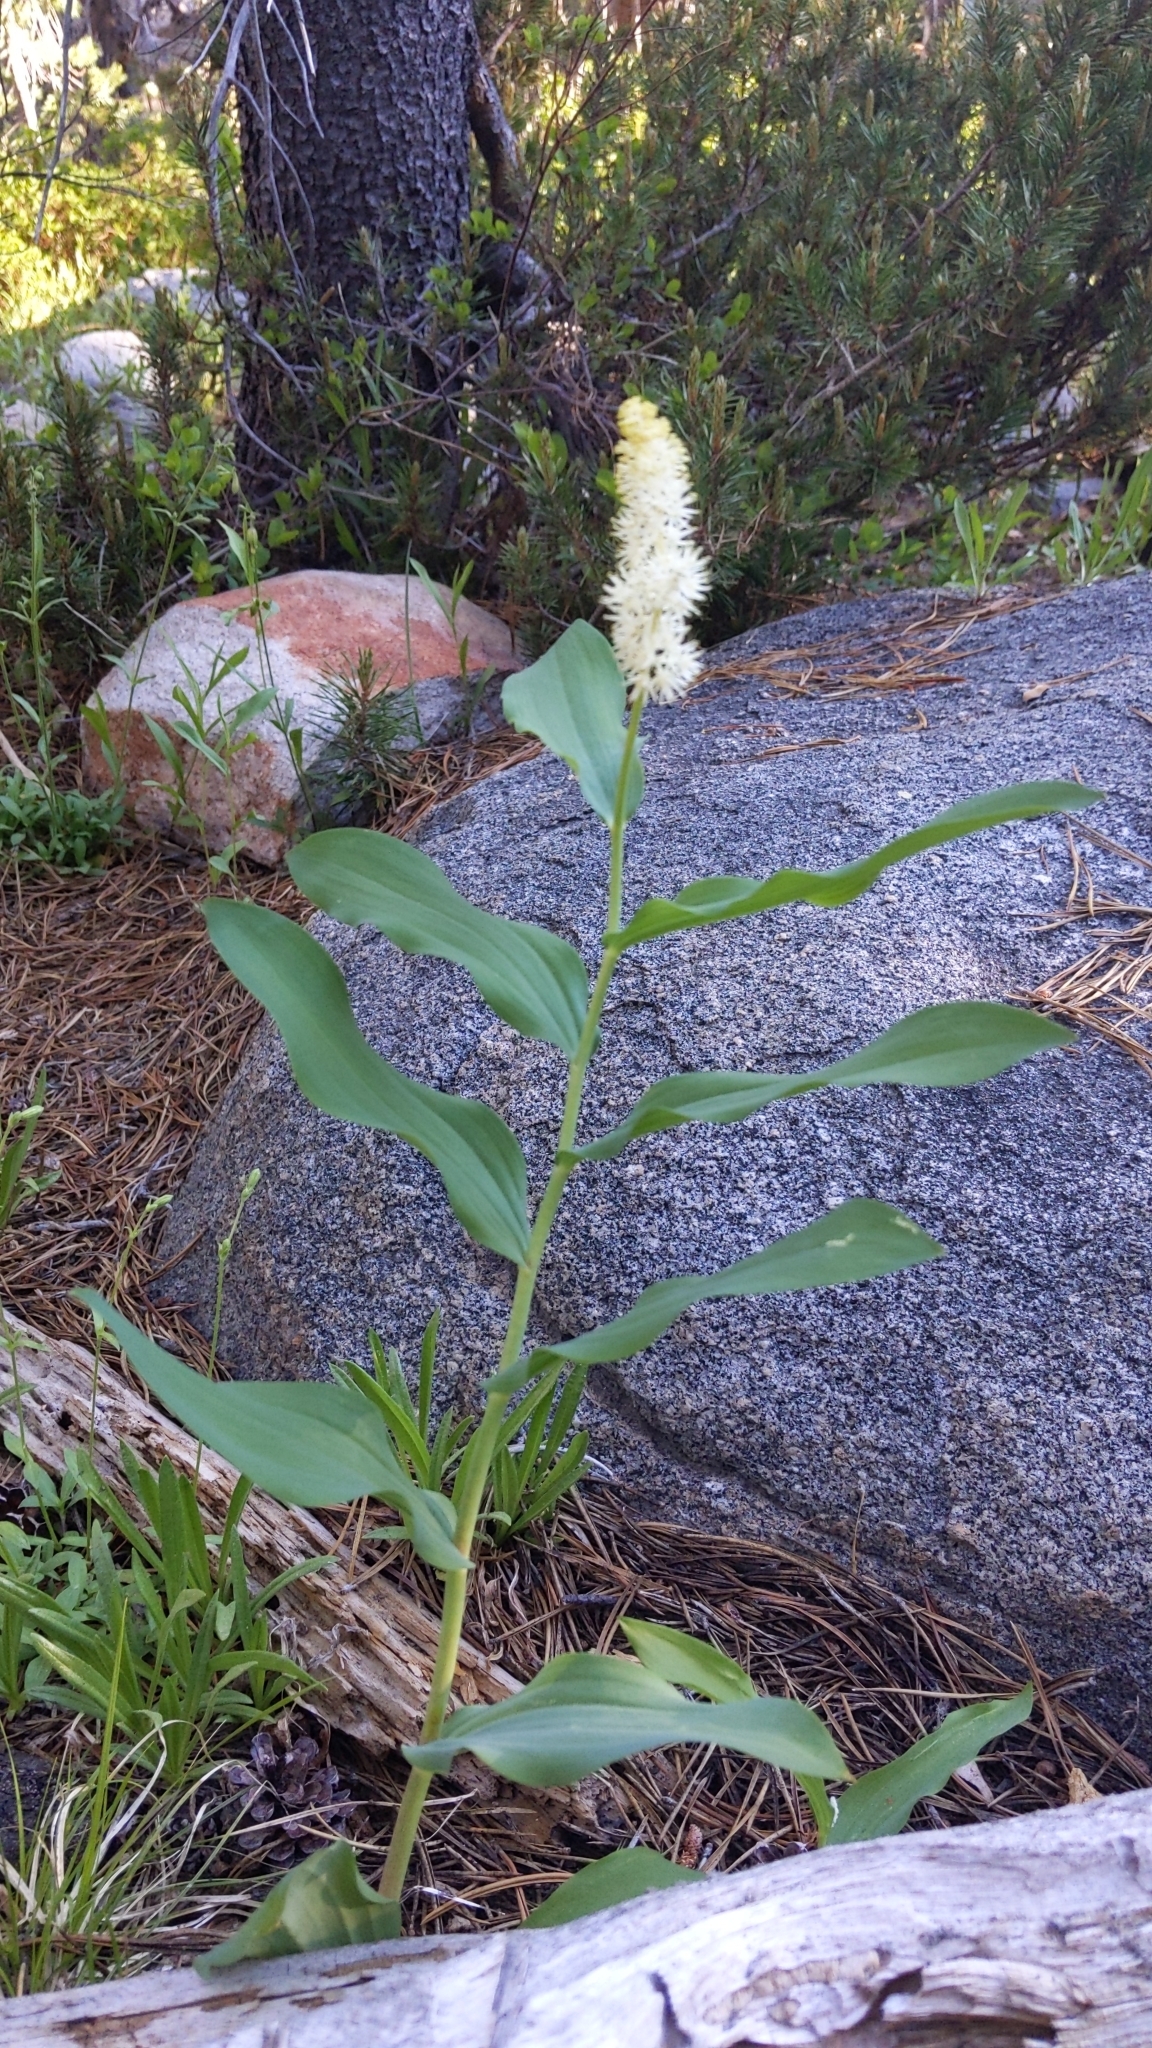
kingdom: Plantae
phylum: Tracheophyta
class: Liliopsida
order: Asparagales
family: Asparagaceae
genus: Maianthemum
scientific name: Maianthemum racemosum
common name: False spikenard
